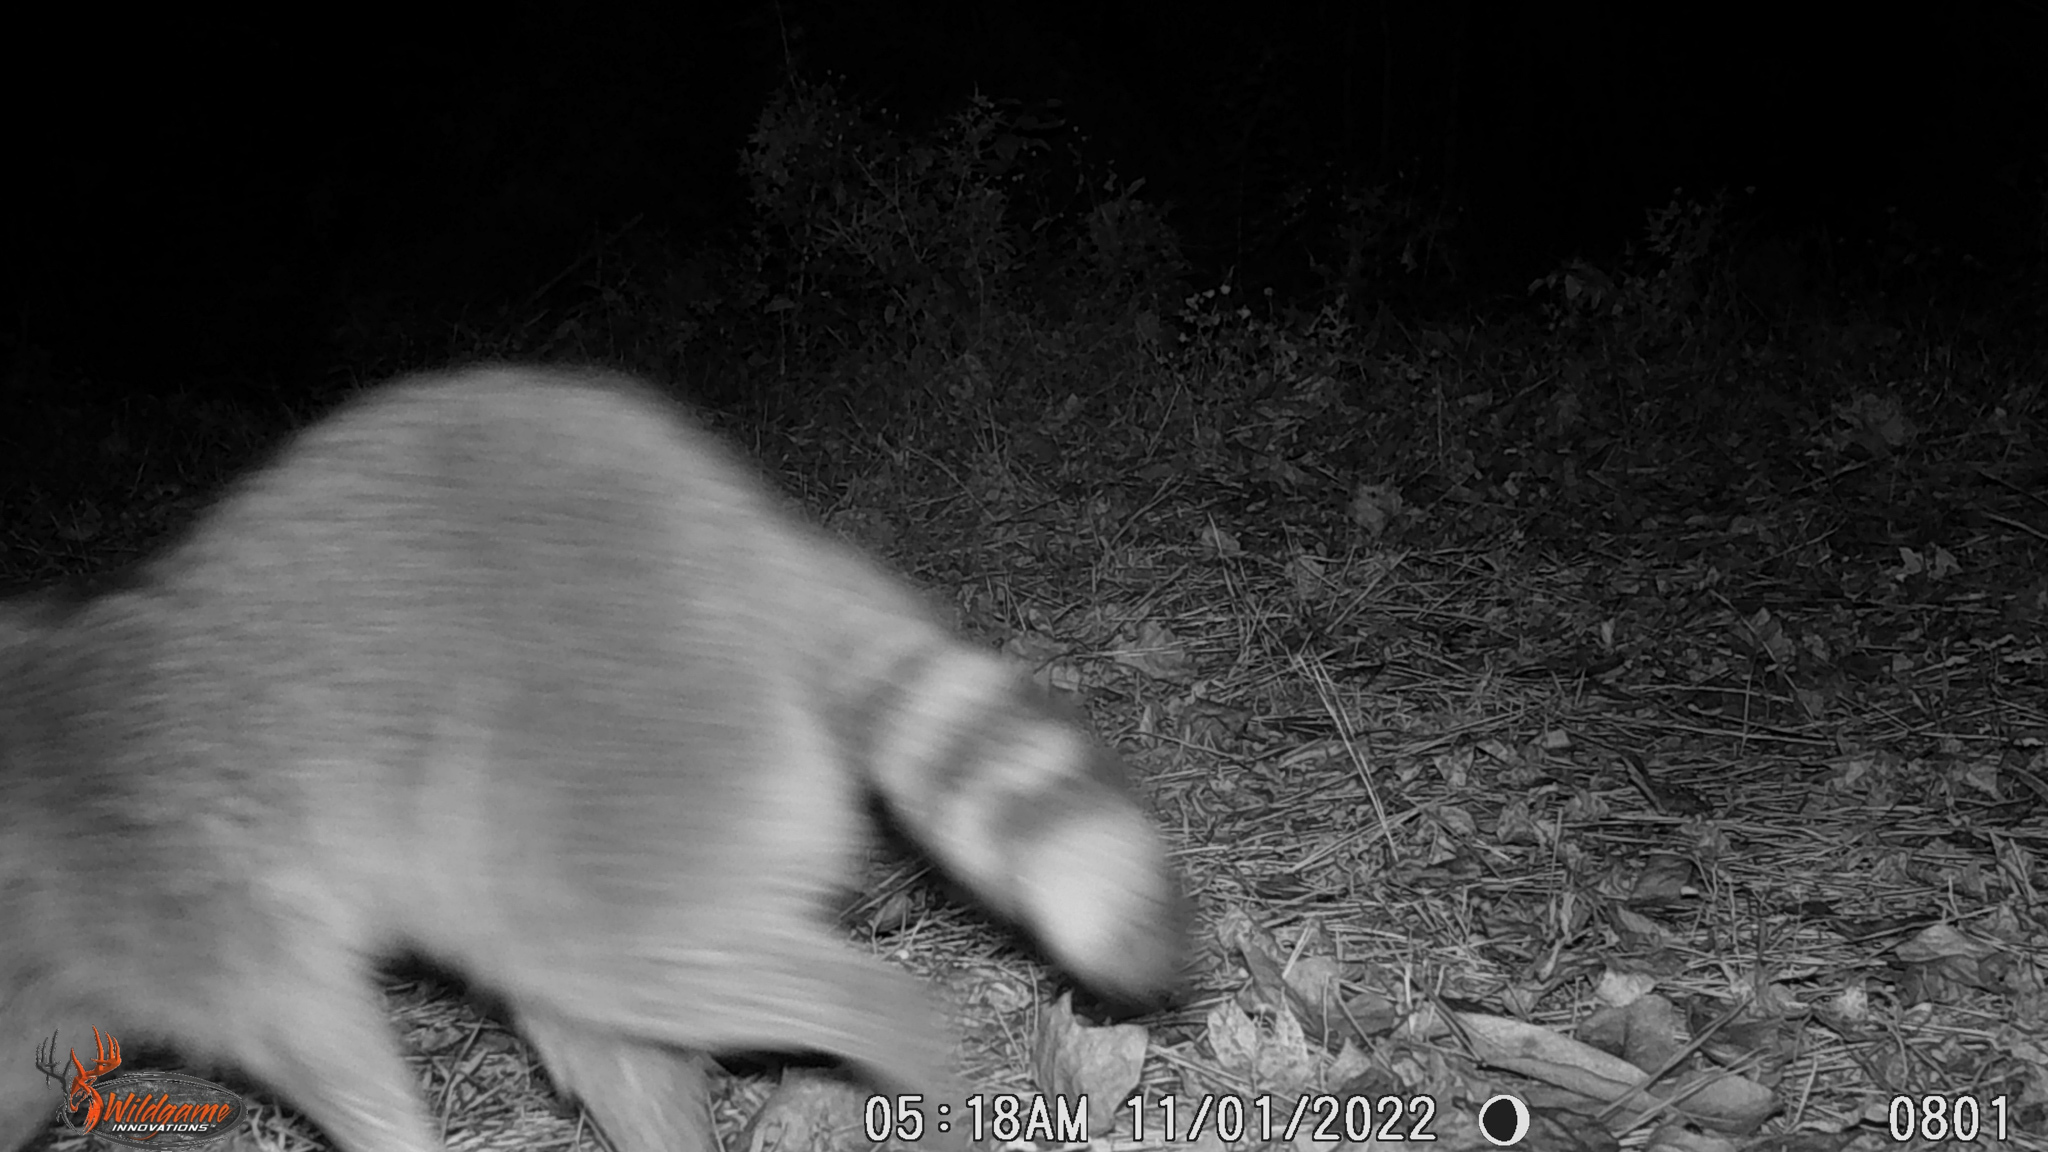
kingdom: Animalia
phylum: Chordata
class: Mammalia
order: Carnivora
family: Procyonidae
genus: Procyon
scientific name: Procyon lotor
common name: Raccoon
